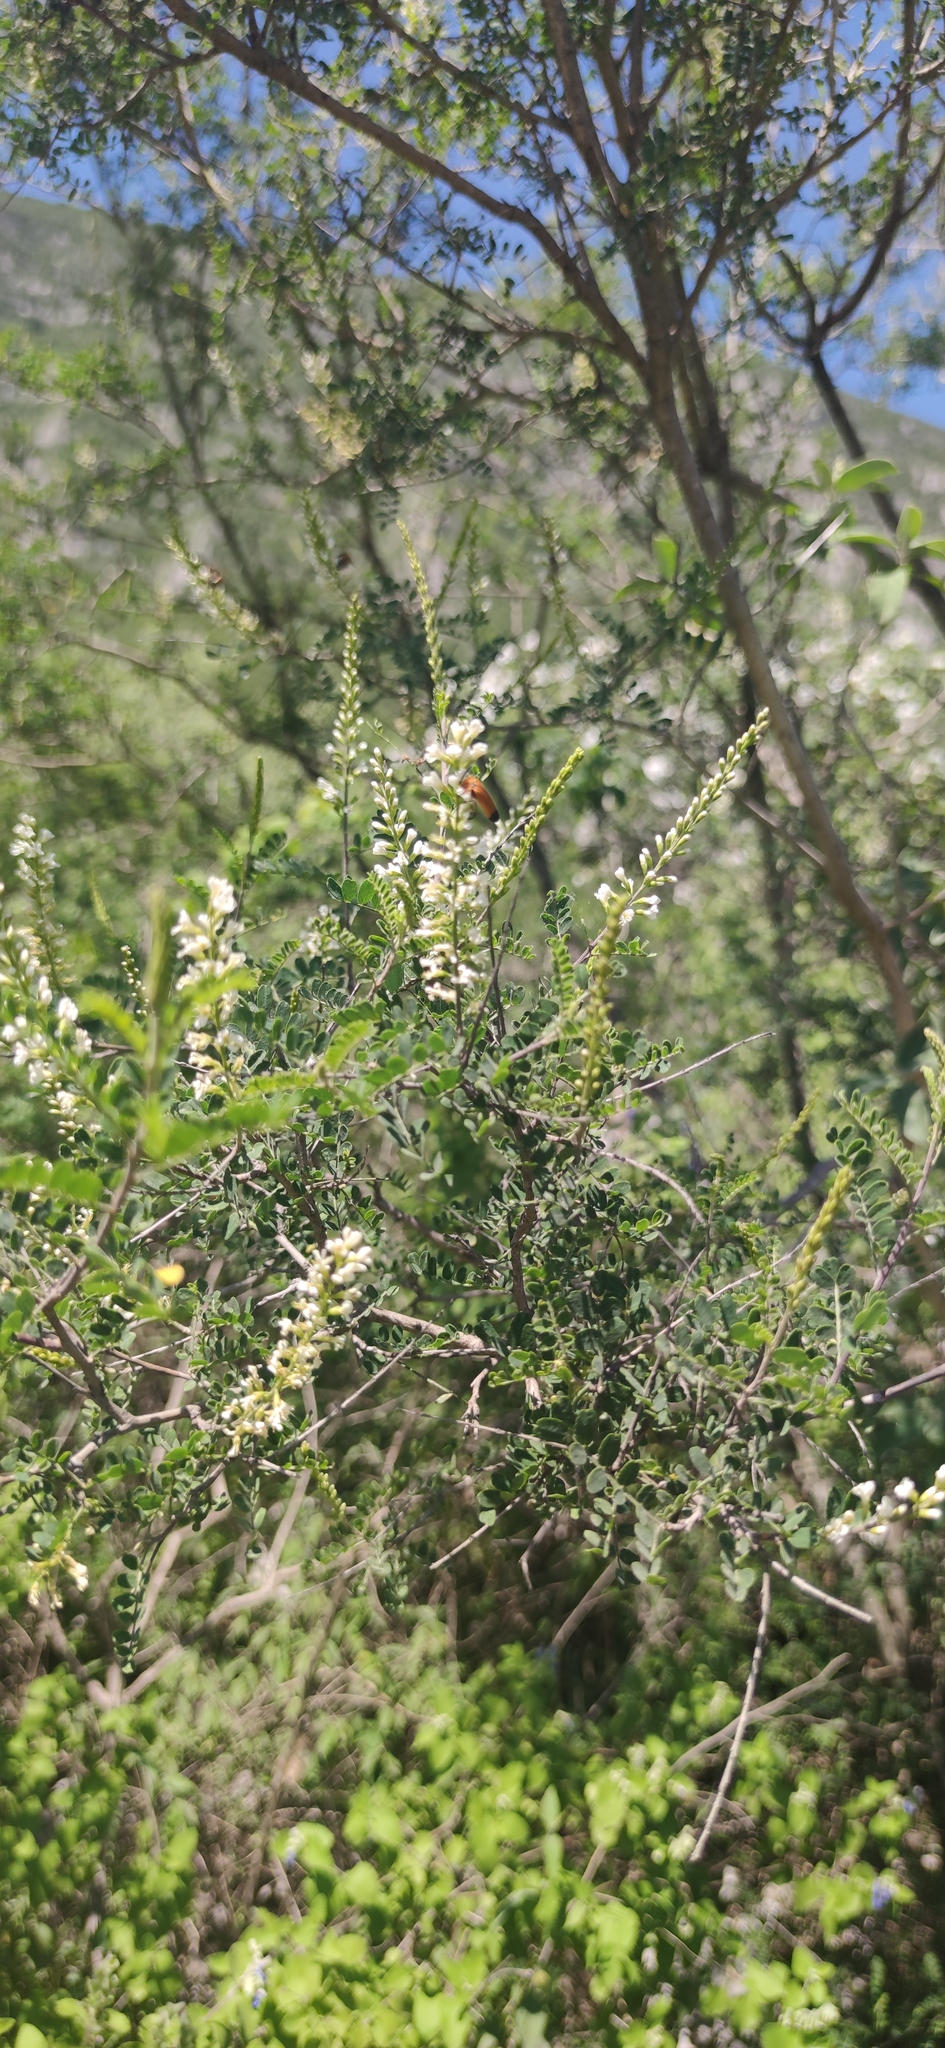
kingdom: Plantae
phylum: Tracheophyta
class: Magnoliopsida
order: Fabales
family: Fabaceae
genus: Eysenhardtia
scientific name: Eysenhardtia texana
